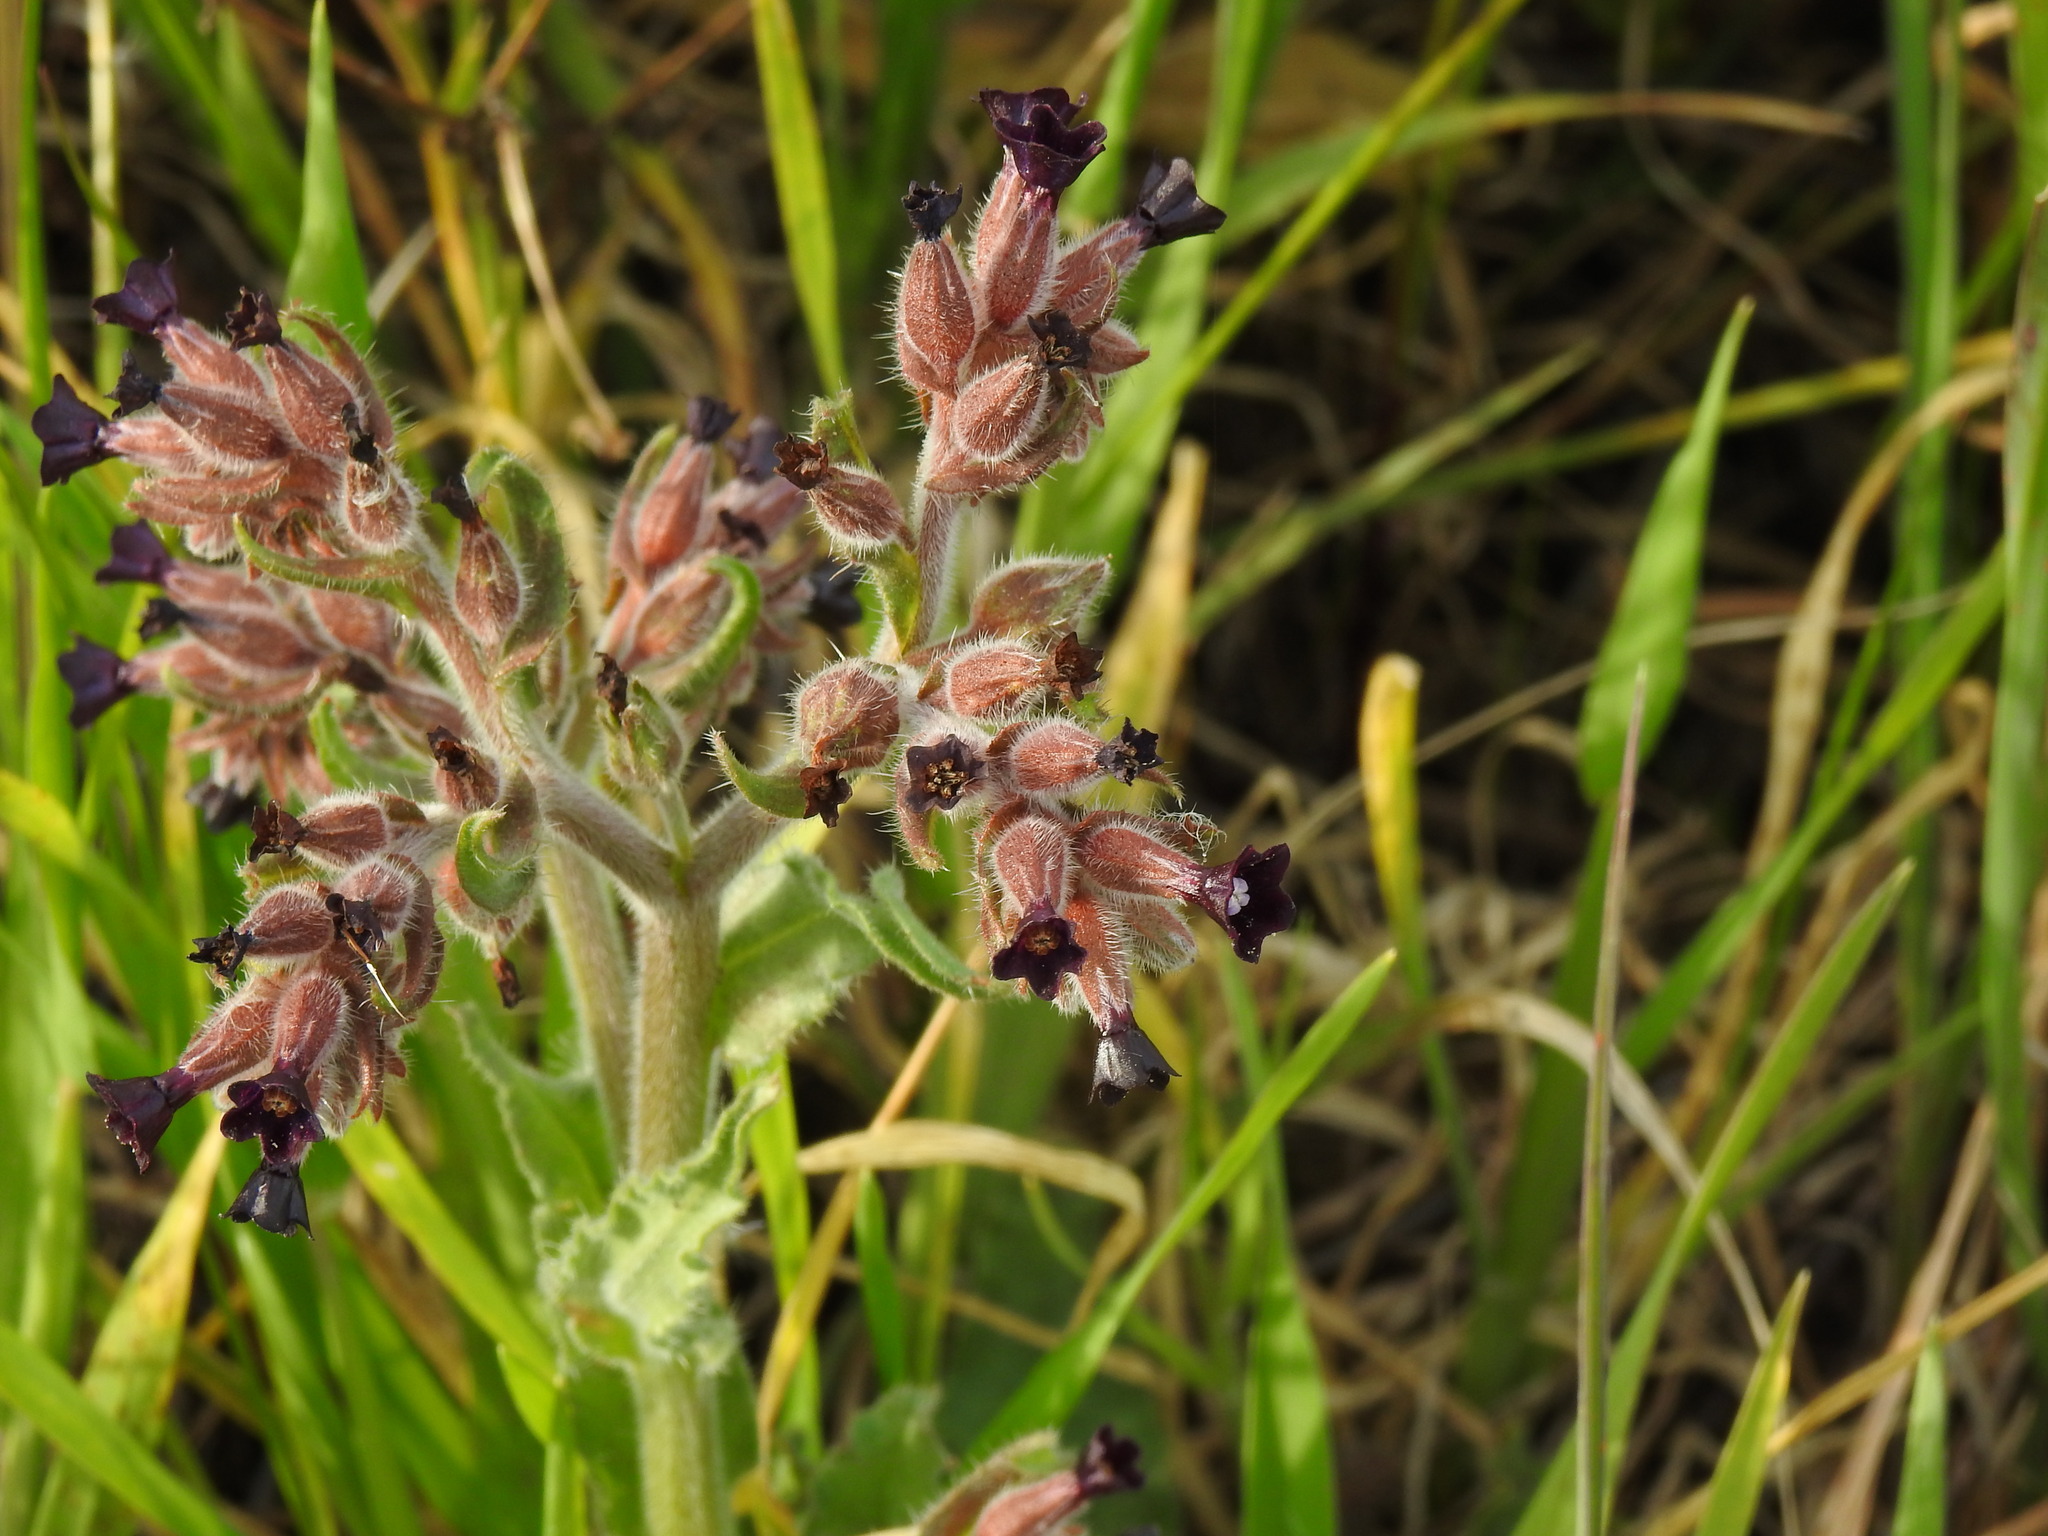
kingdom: Plantae
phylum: Tracheophyta
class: Magnoliopsida
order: Boraginales
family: Boraginaceae
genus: Anchusa
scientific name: Anchusa undulata
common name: Undulate alkanet
